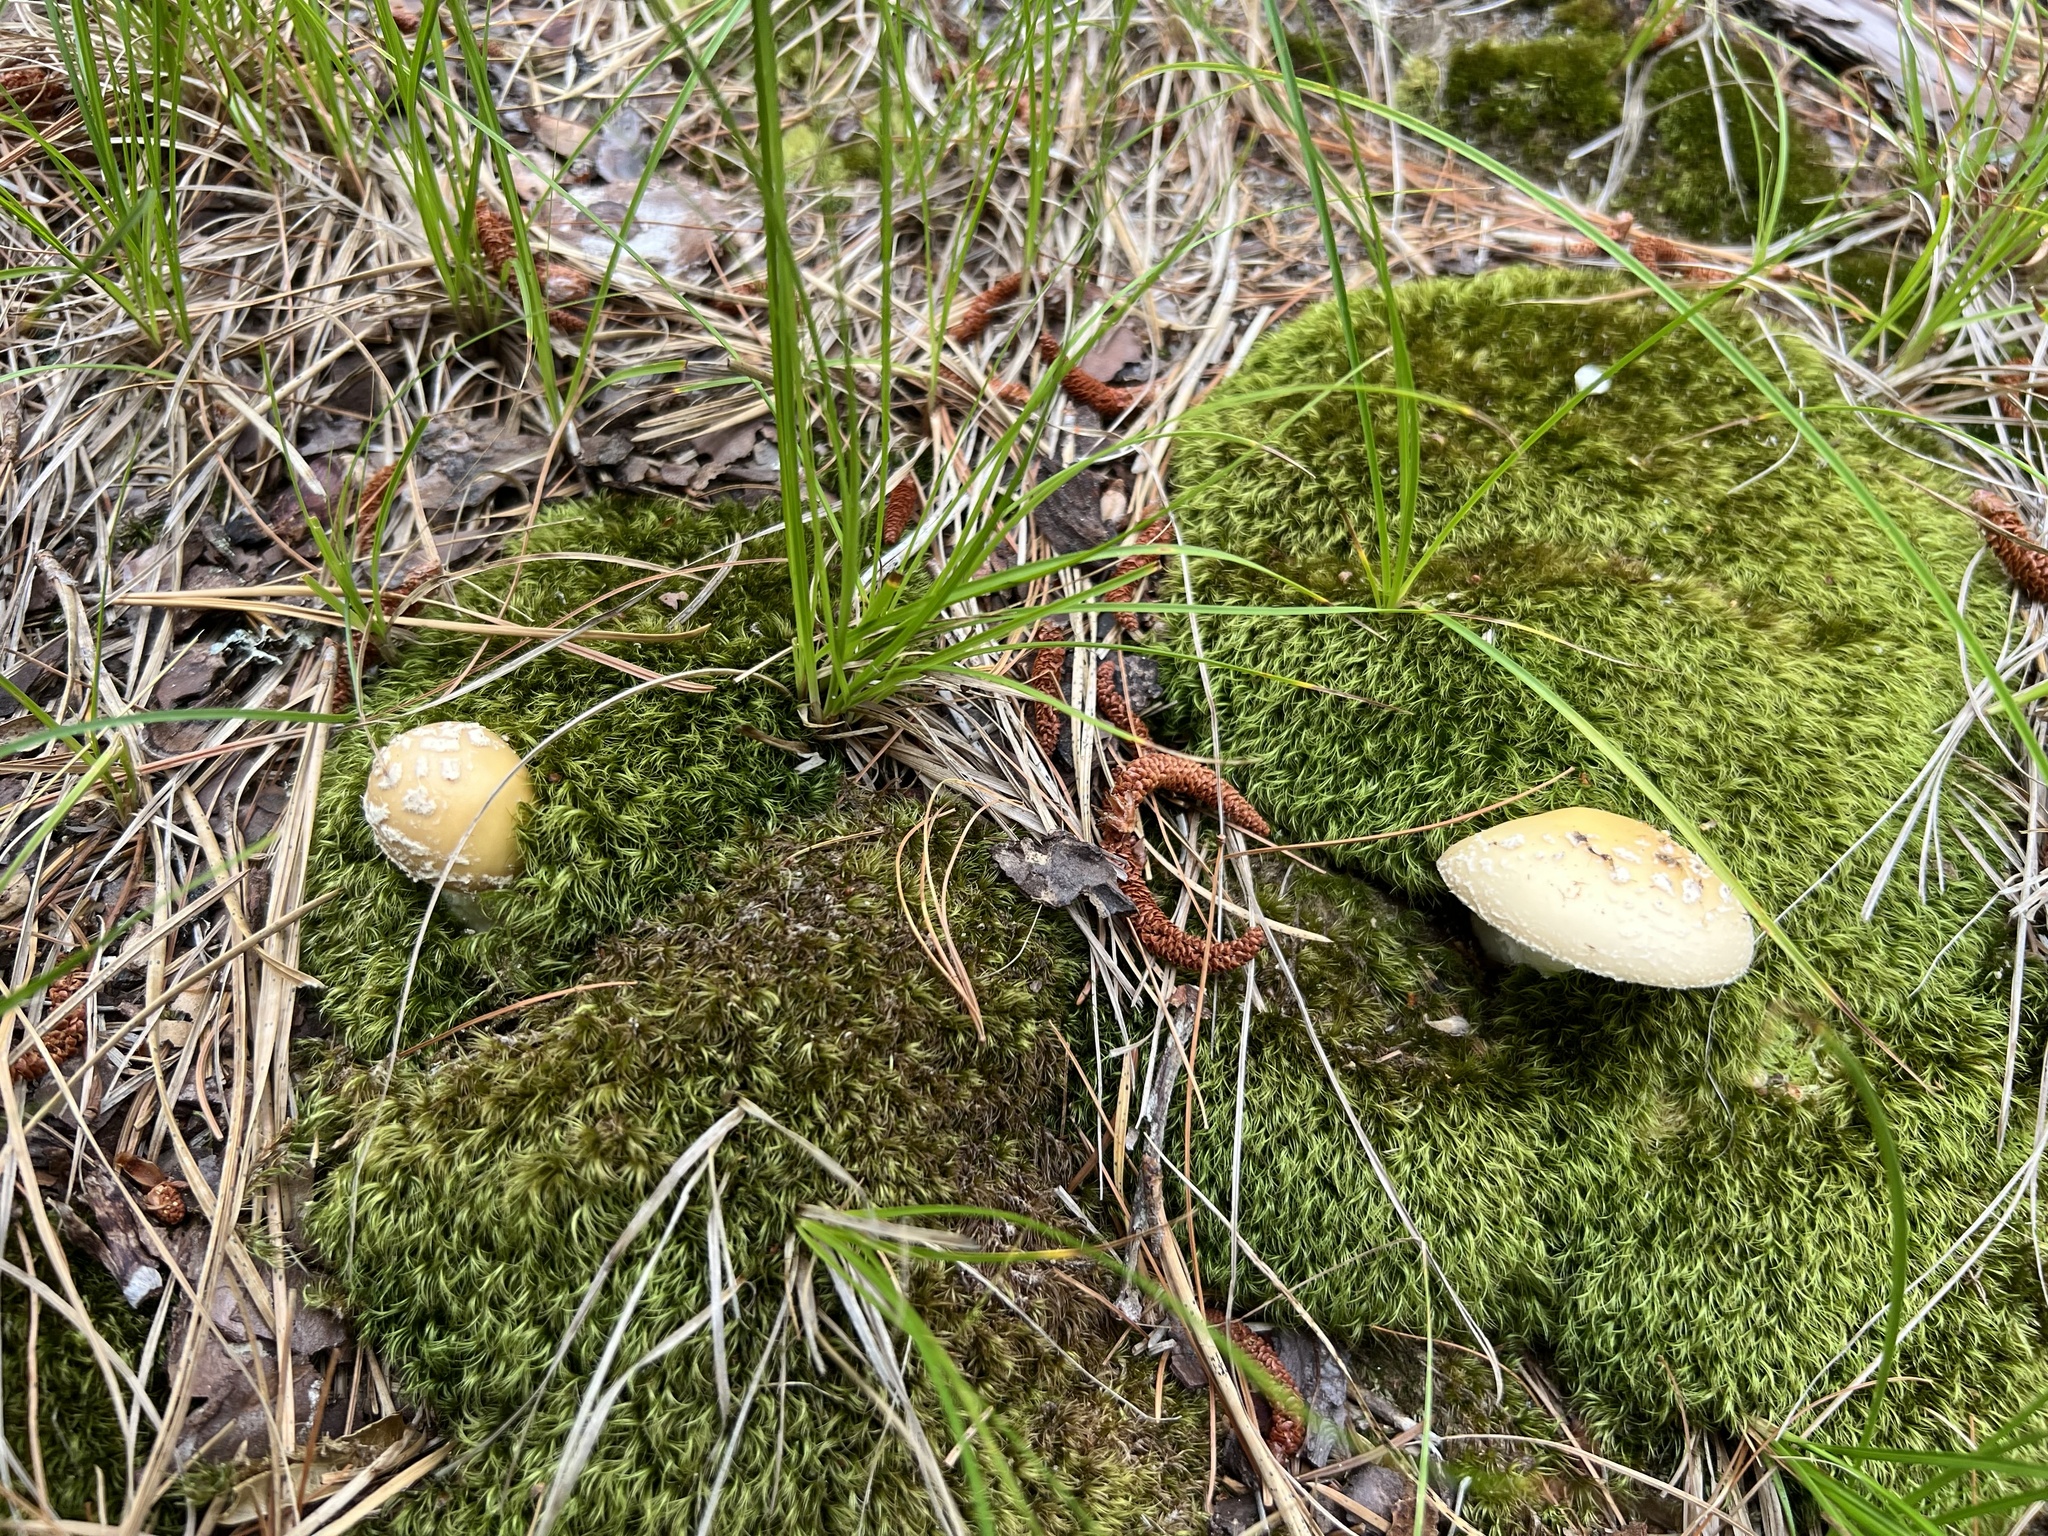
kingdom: Fungi
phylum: Basidiomycota
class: Agaricomycetes
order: Agaricales
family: Amanitaceae
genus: Amanita
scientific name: Amanita crenulata
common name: Poison champagne amanita
